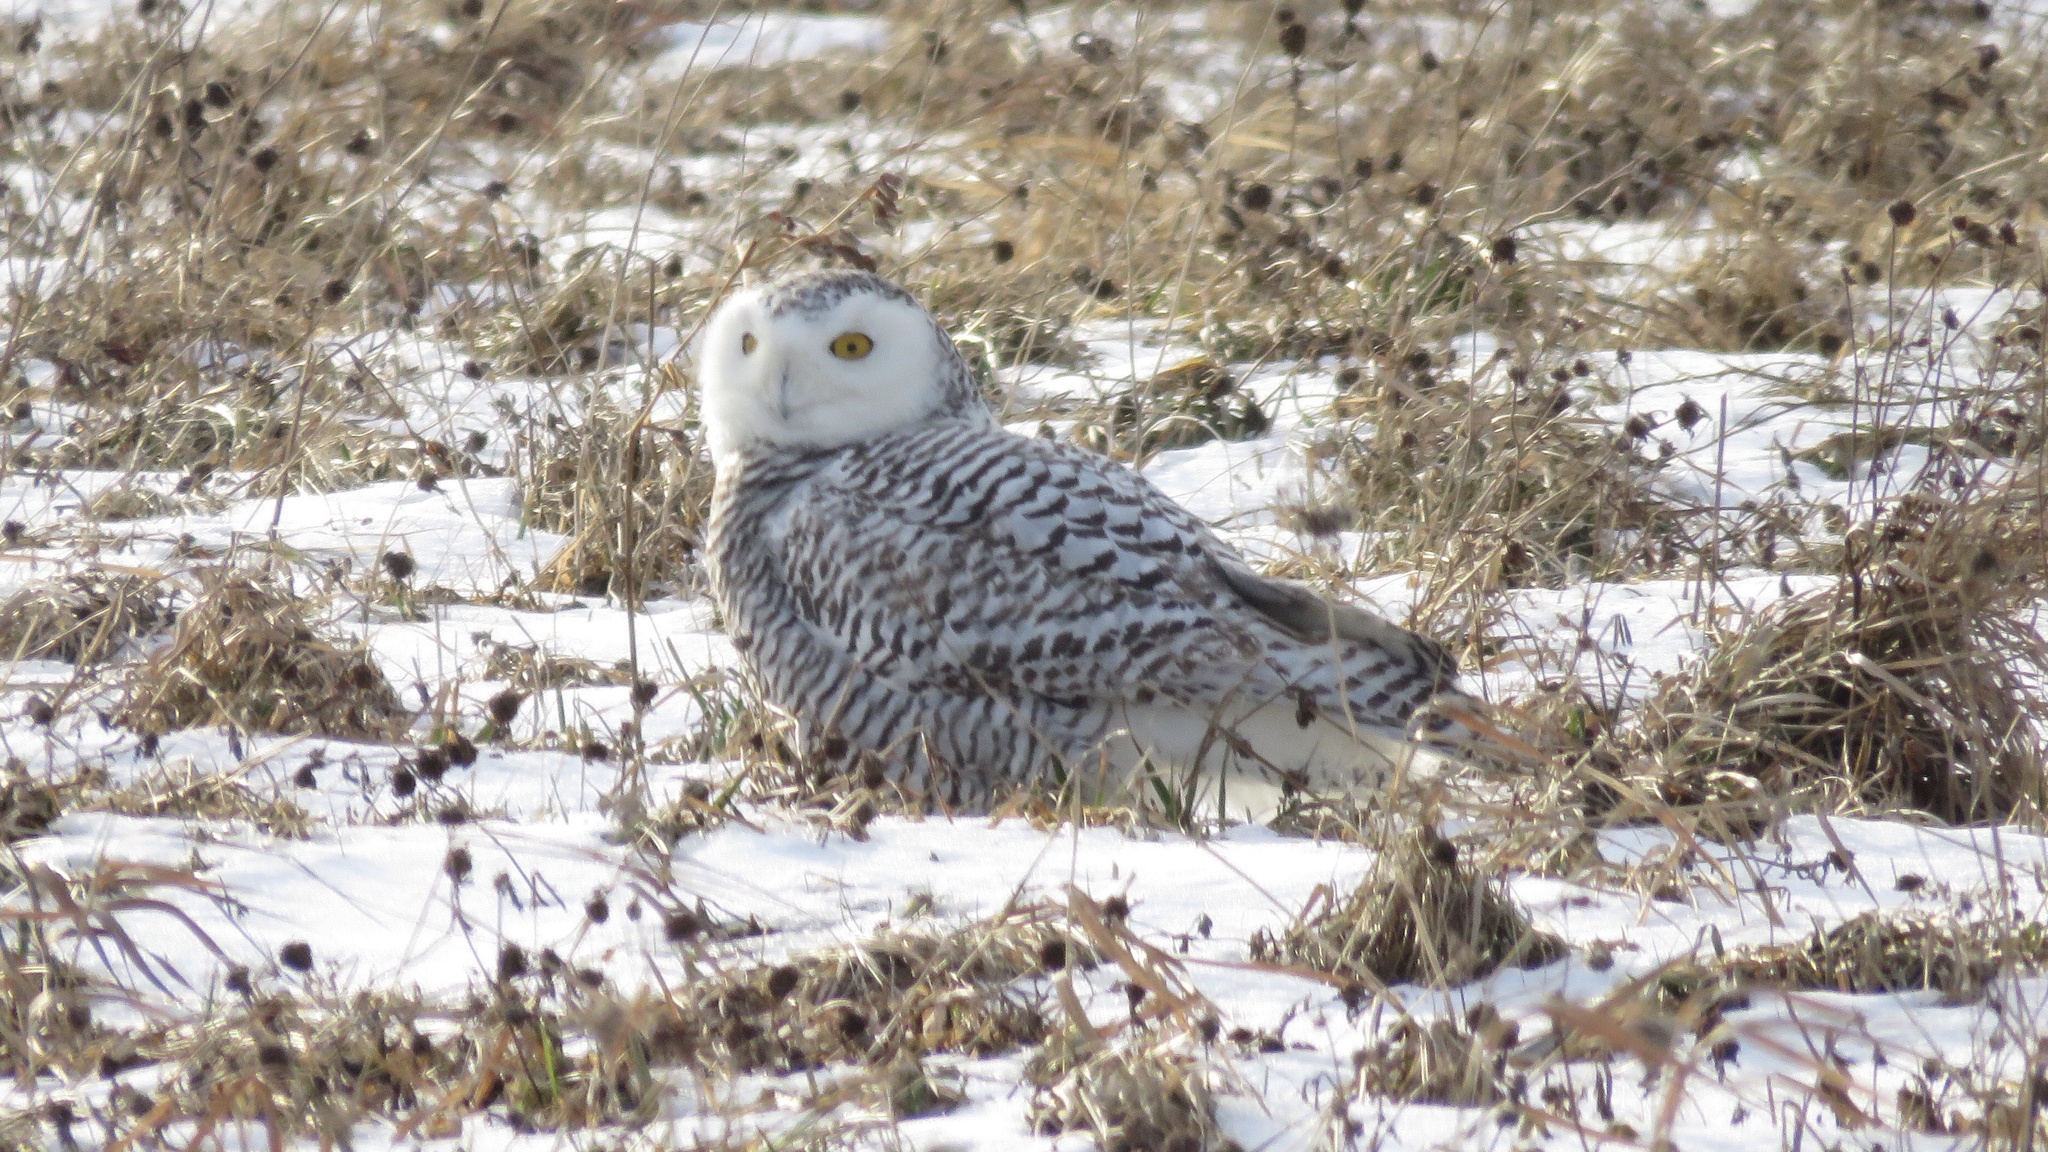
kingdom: Animalia
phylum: Chordata
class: Aves
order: Strigiformes
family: Strigidae
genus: Bubo
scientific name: Bubo scandiacus
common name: Snowy owl
